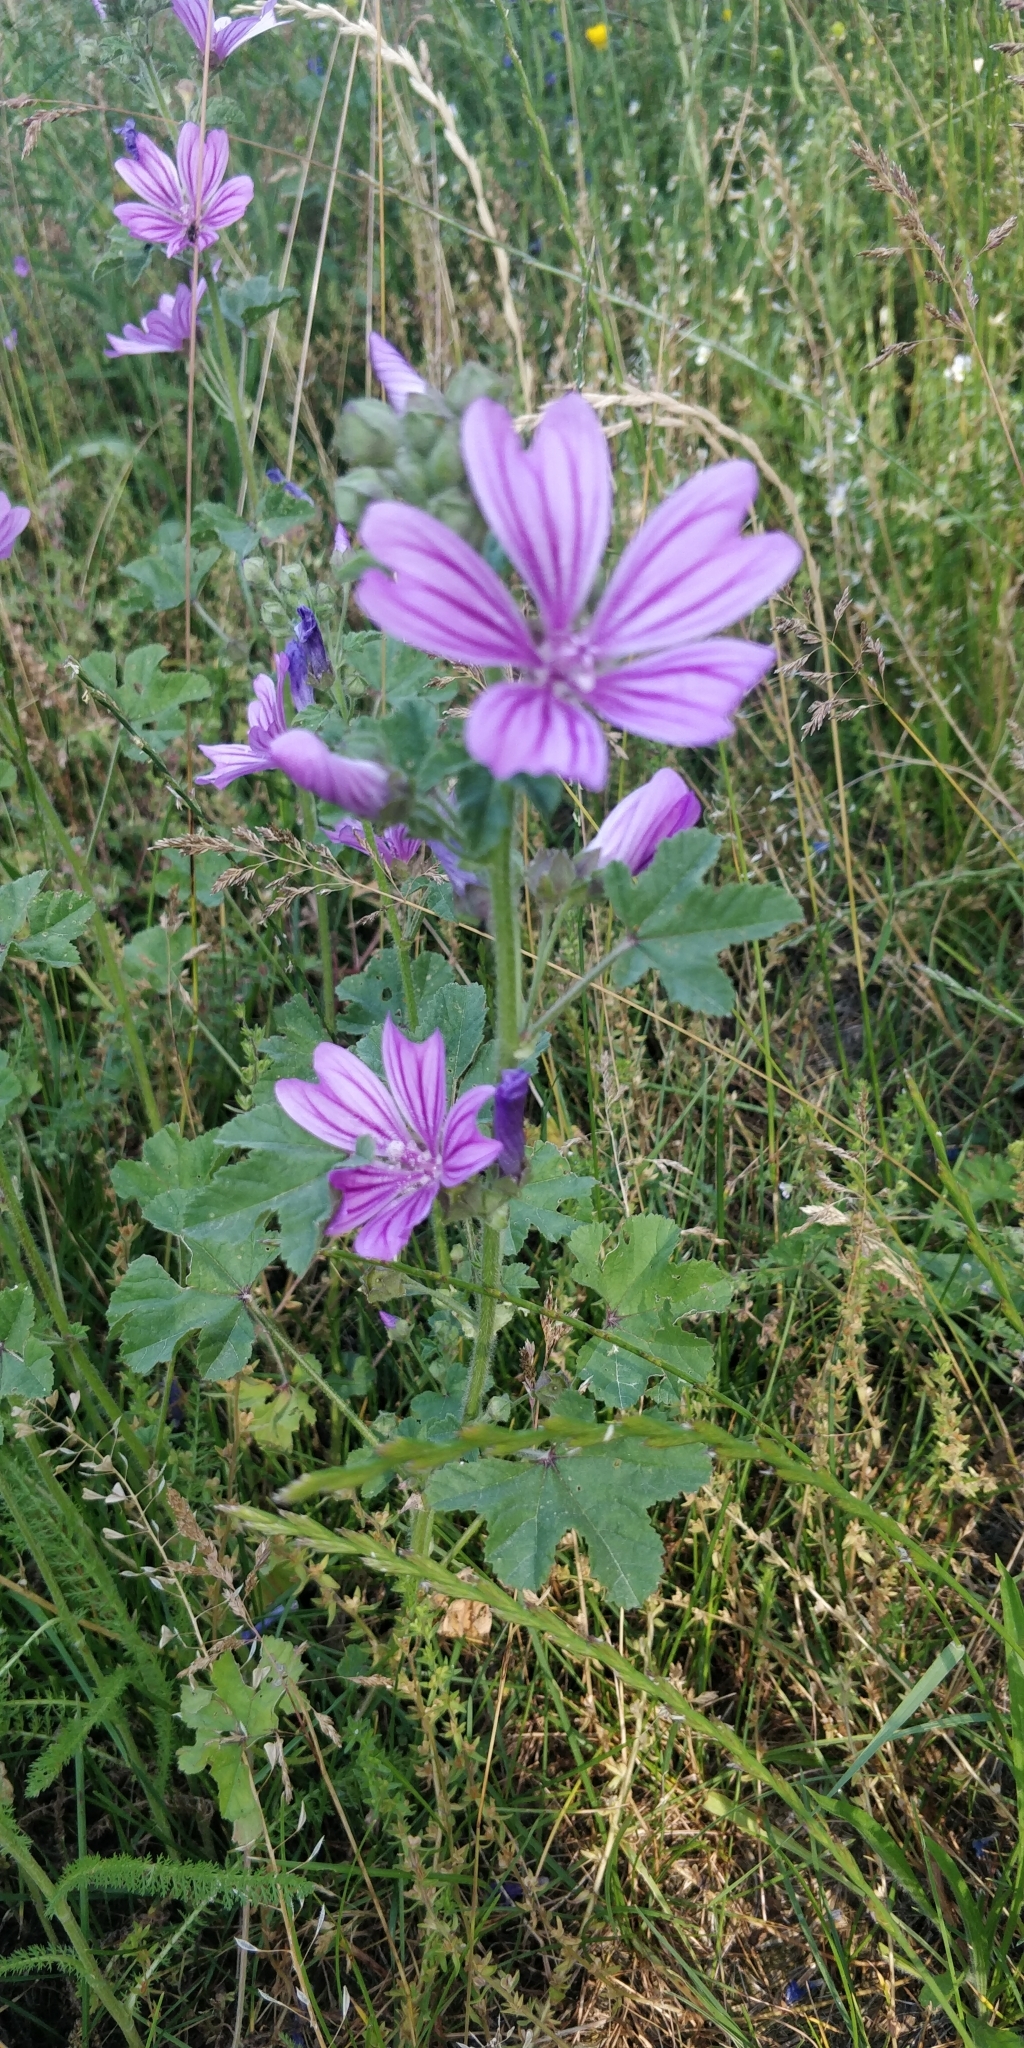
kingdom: Plantae
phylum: Tracheophyta
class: Magnoliopsida
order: Malvales
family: Malvaceae
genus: Malva
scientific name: Malva sylvestris
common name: Common mallow
